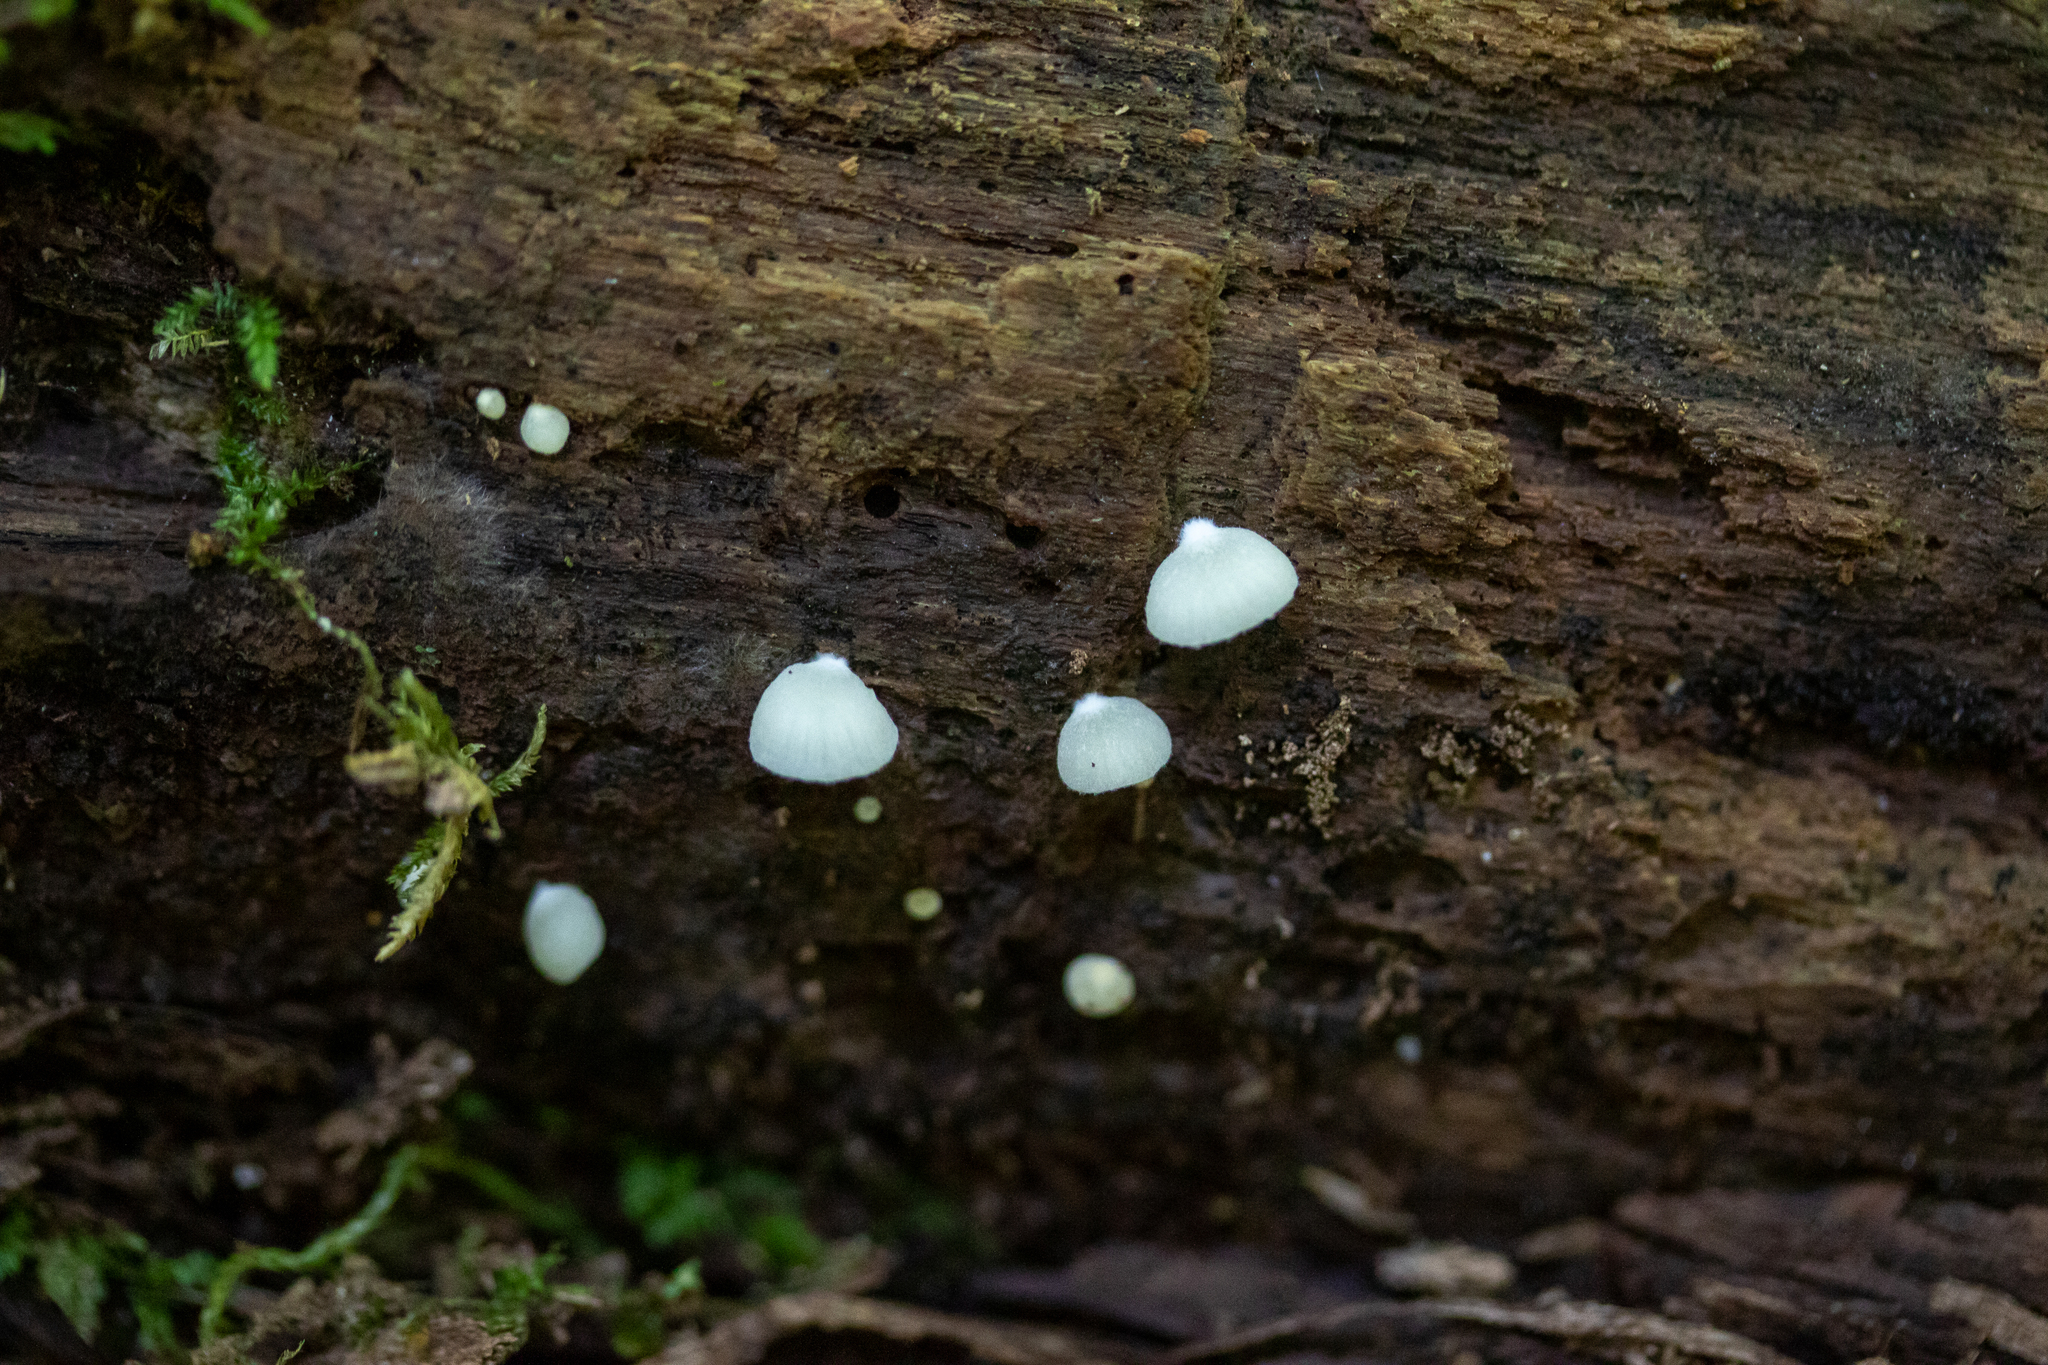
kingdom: Fungi
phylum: Basidiomycota
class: Agaricomycetes
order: Agaricales
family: Crepidotaceae
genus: Crepidotus
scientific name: Crepidotus applanatus
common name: Flat crep
